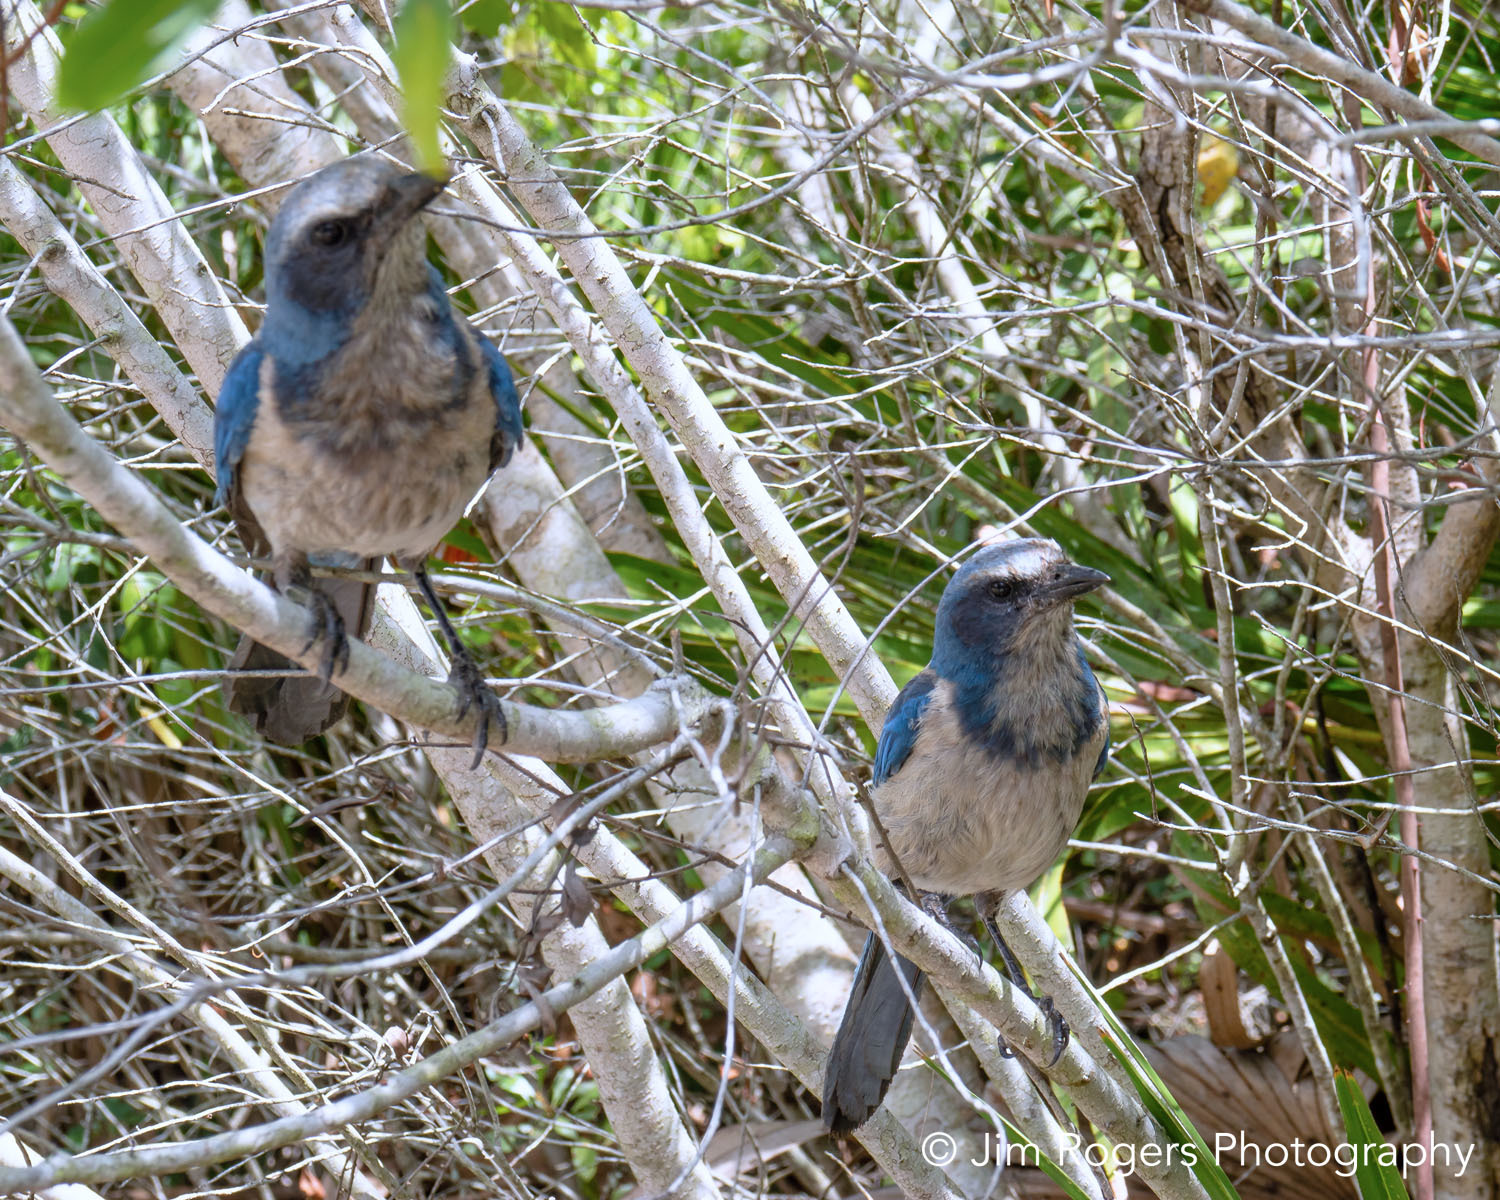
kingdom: Animalia
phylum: Chordata
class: Aves
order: Passeriformes
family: Corvidae
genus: Aphelocoma
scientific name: Aphelocoma coerulescens
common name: Florida scrub jay
